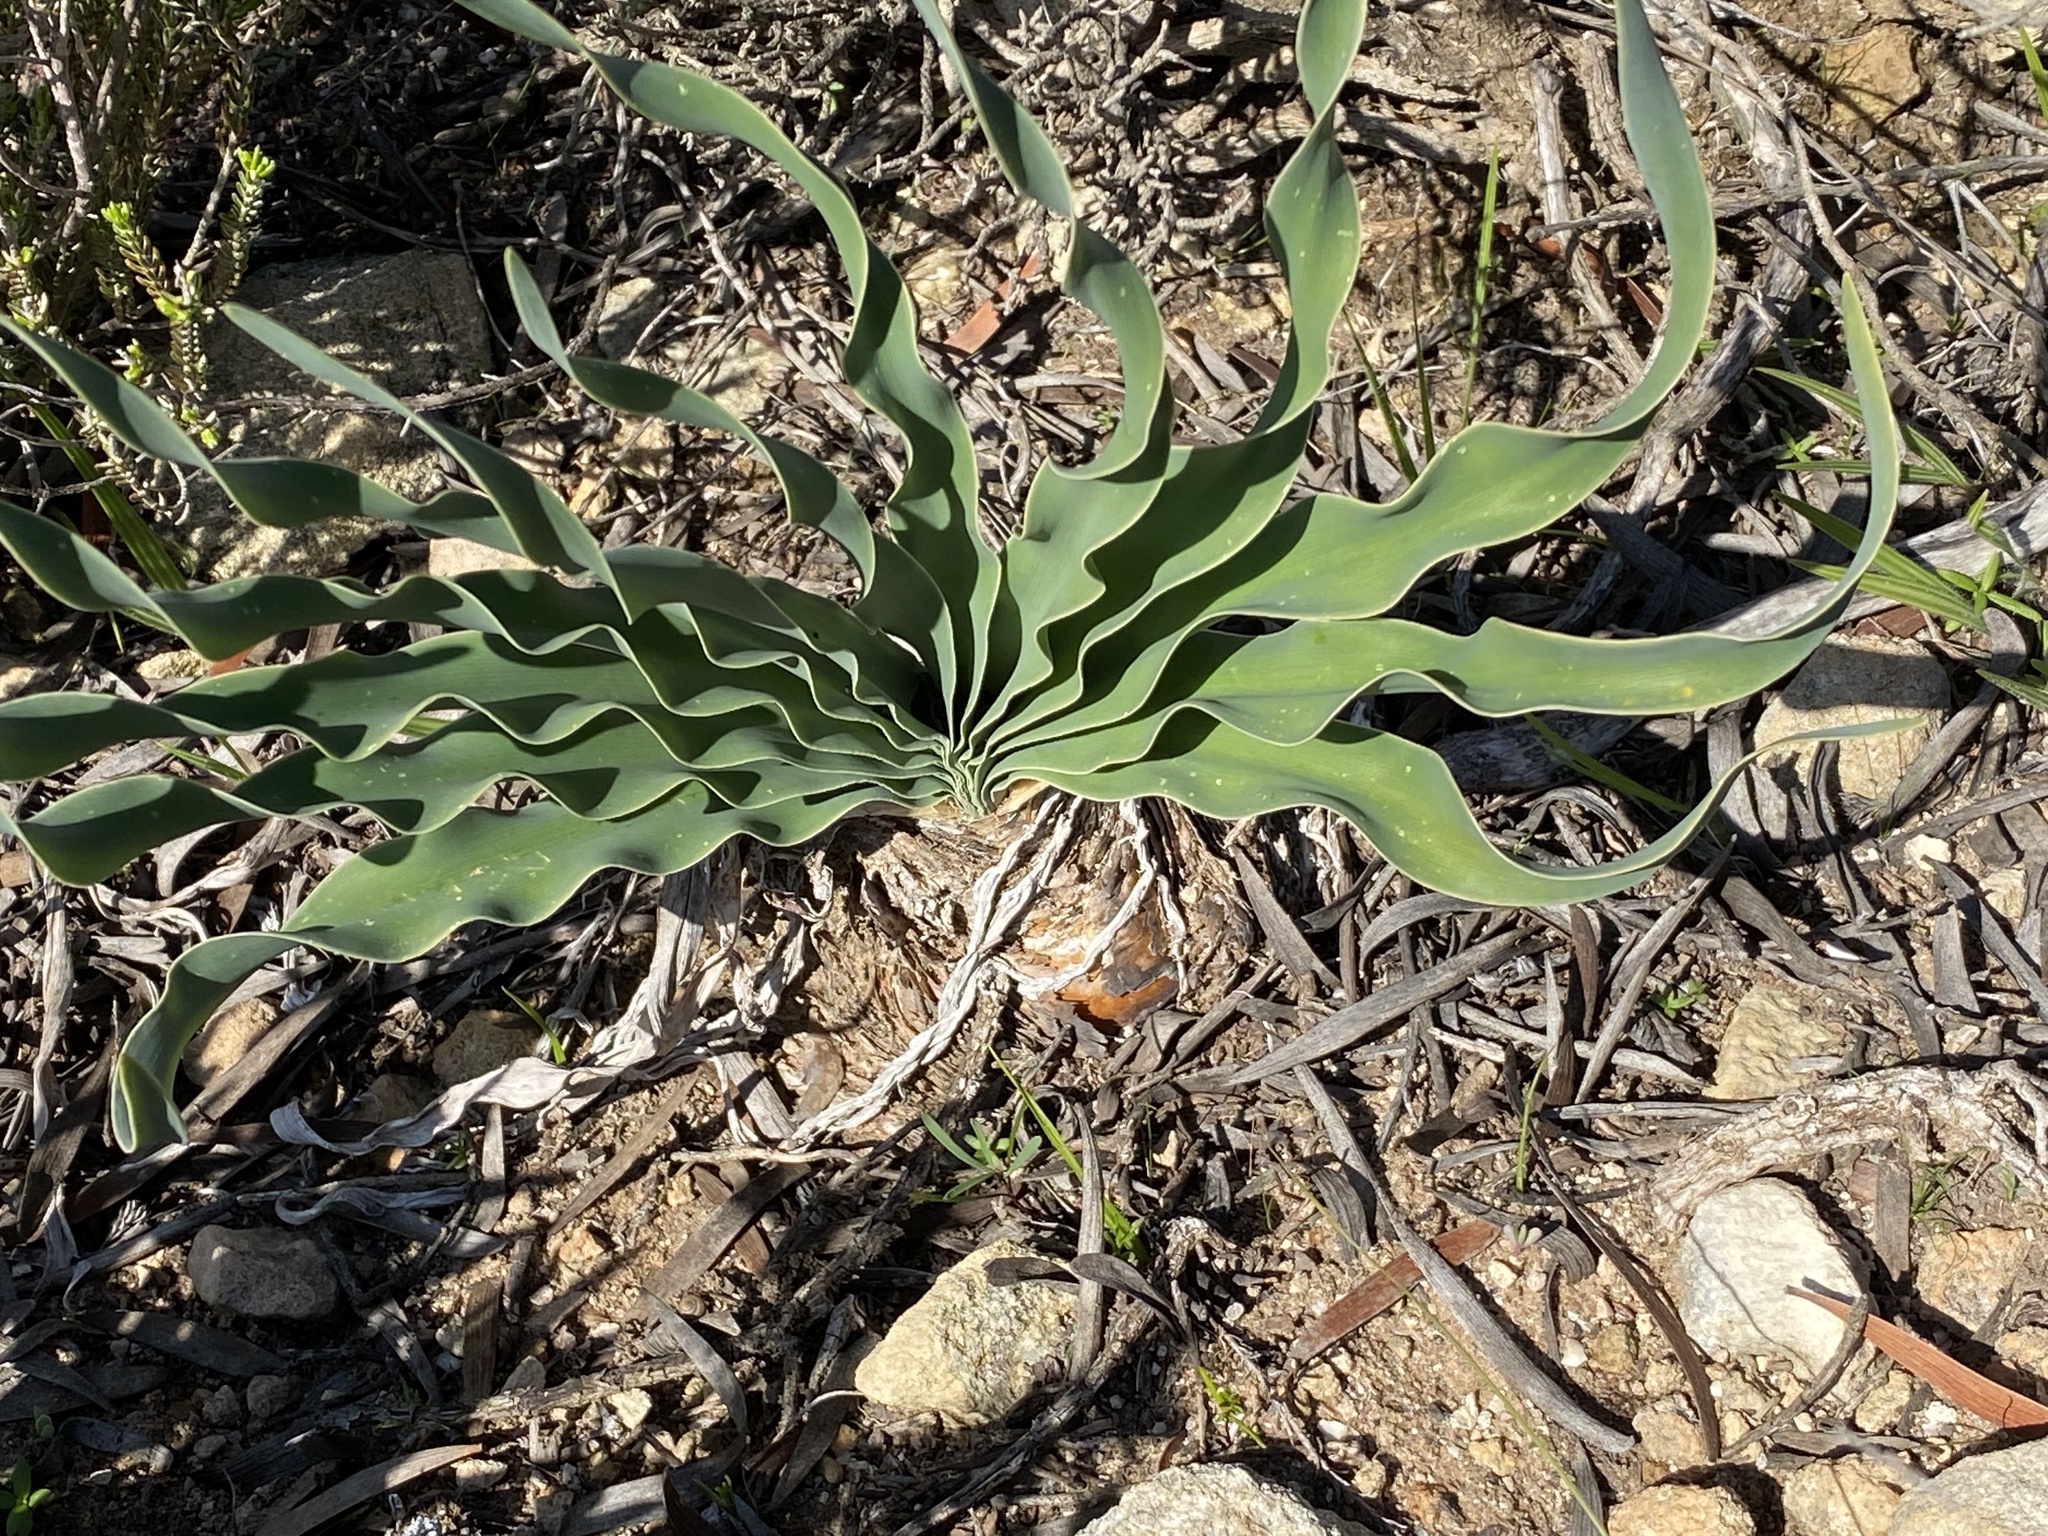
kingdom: Plantae
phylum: Tracheophyta
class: Liliopsida
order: Asparagales
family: Amaryllidaceae
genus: Boophone
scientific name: Boophone disticha
